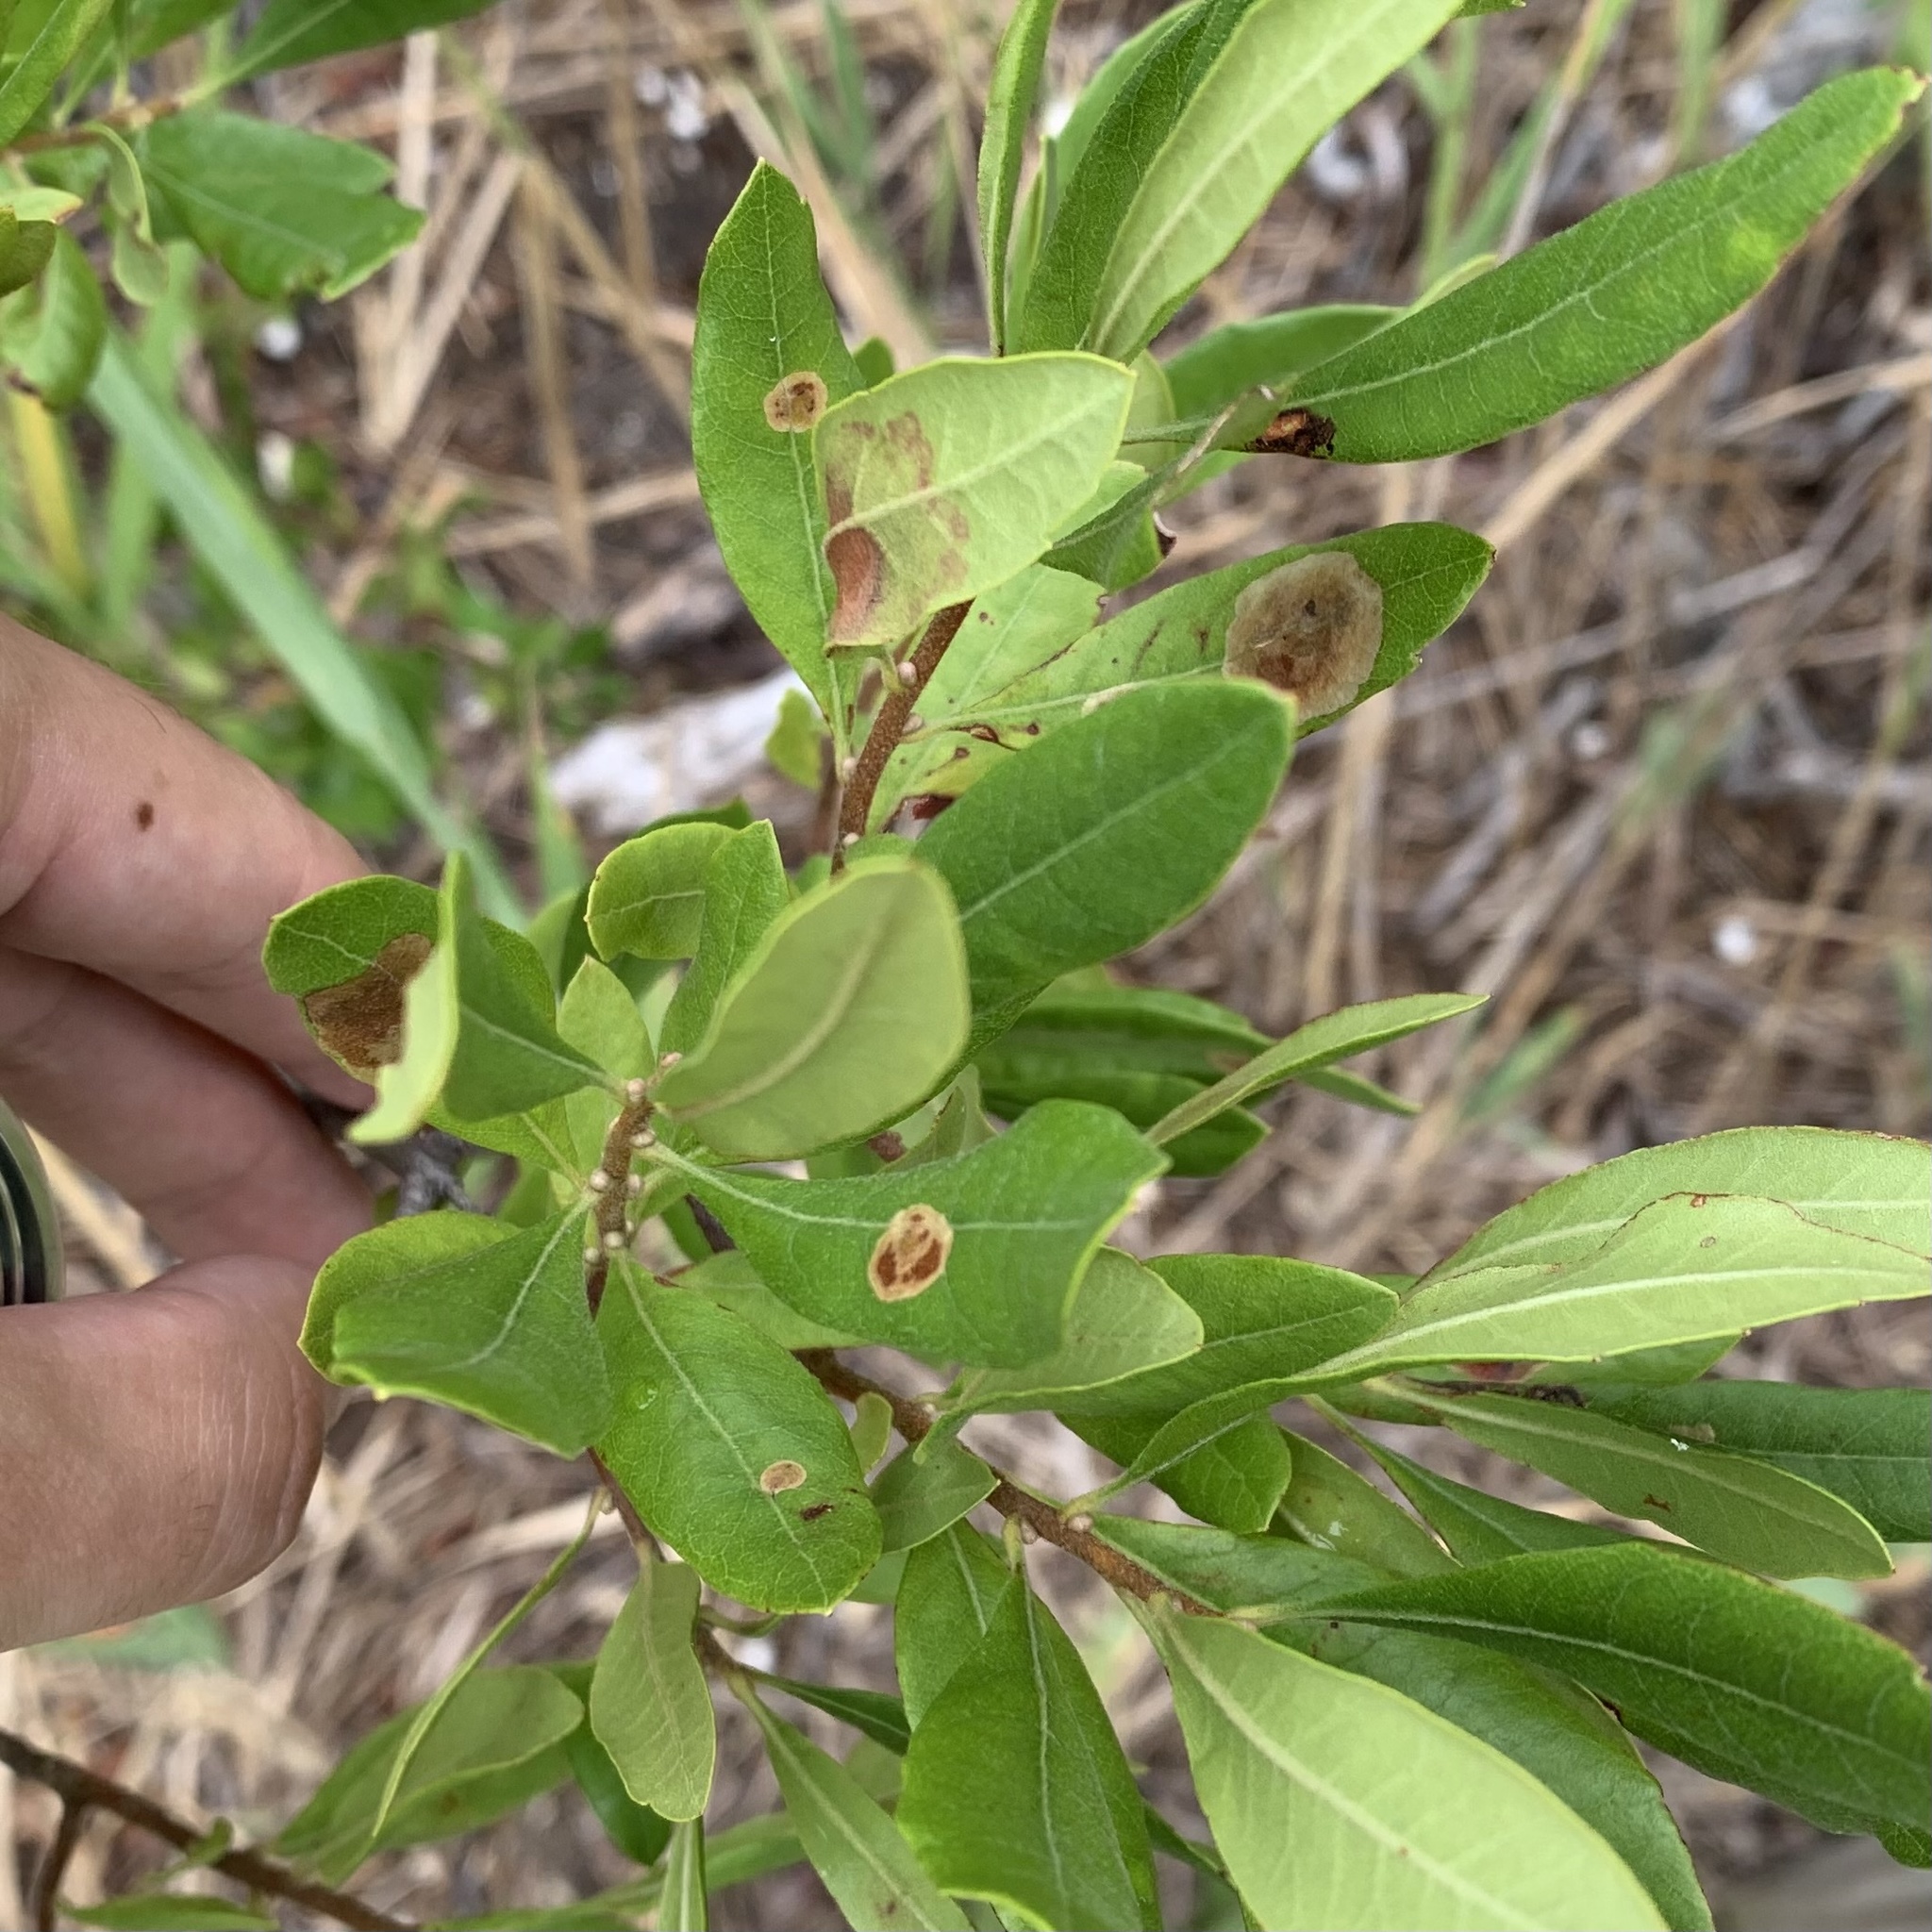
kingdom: Animalia
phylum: Arthropoda
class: Insecta
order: Lepidoptera
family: Gracillariidae
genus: Cameraria
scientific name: Cameraria picturatella
